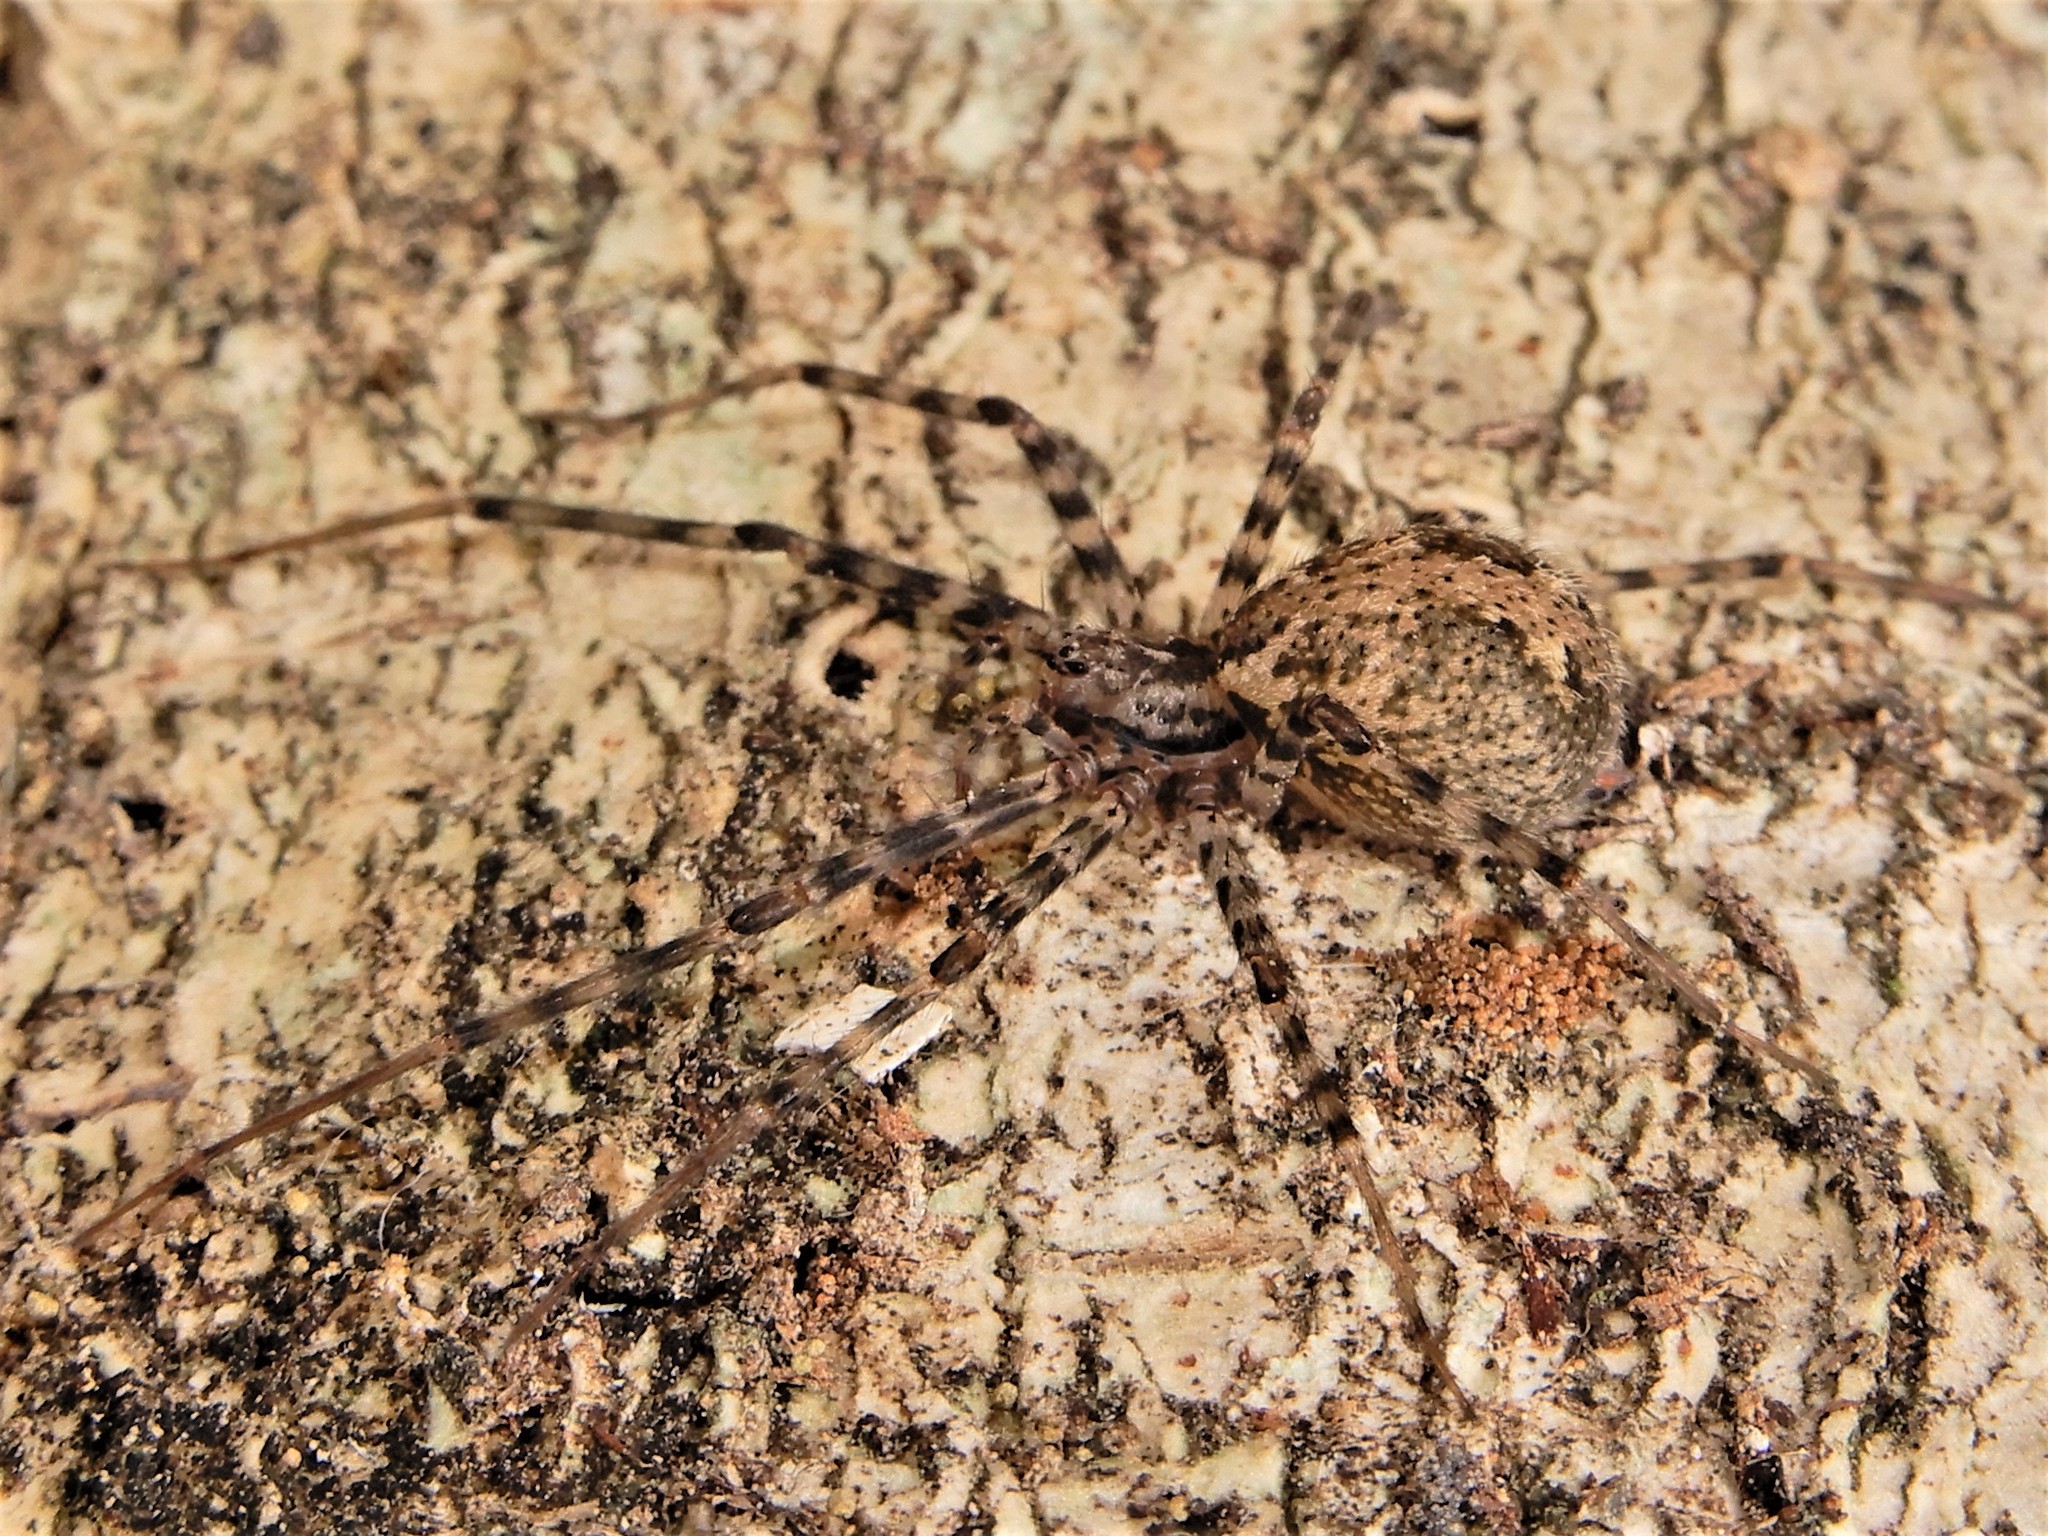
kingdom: Animalia
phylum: Arthropoda
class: Arachnida
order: Araneae
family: Stiphidiidae
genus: Stiphidion
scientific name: Stiphidion facetum
